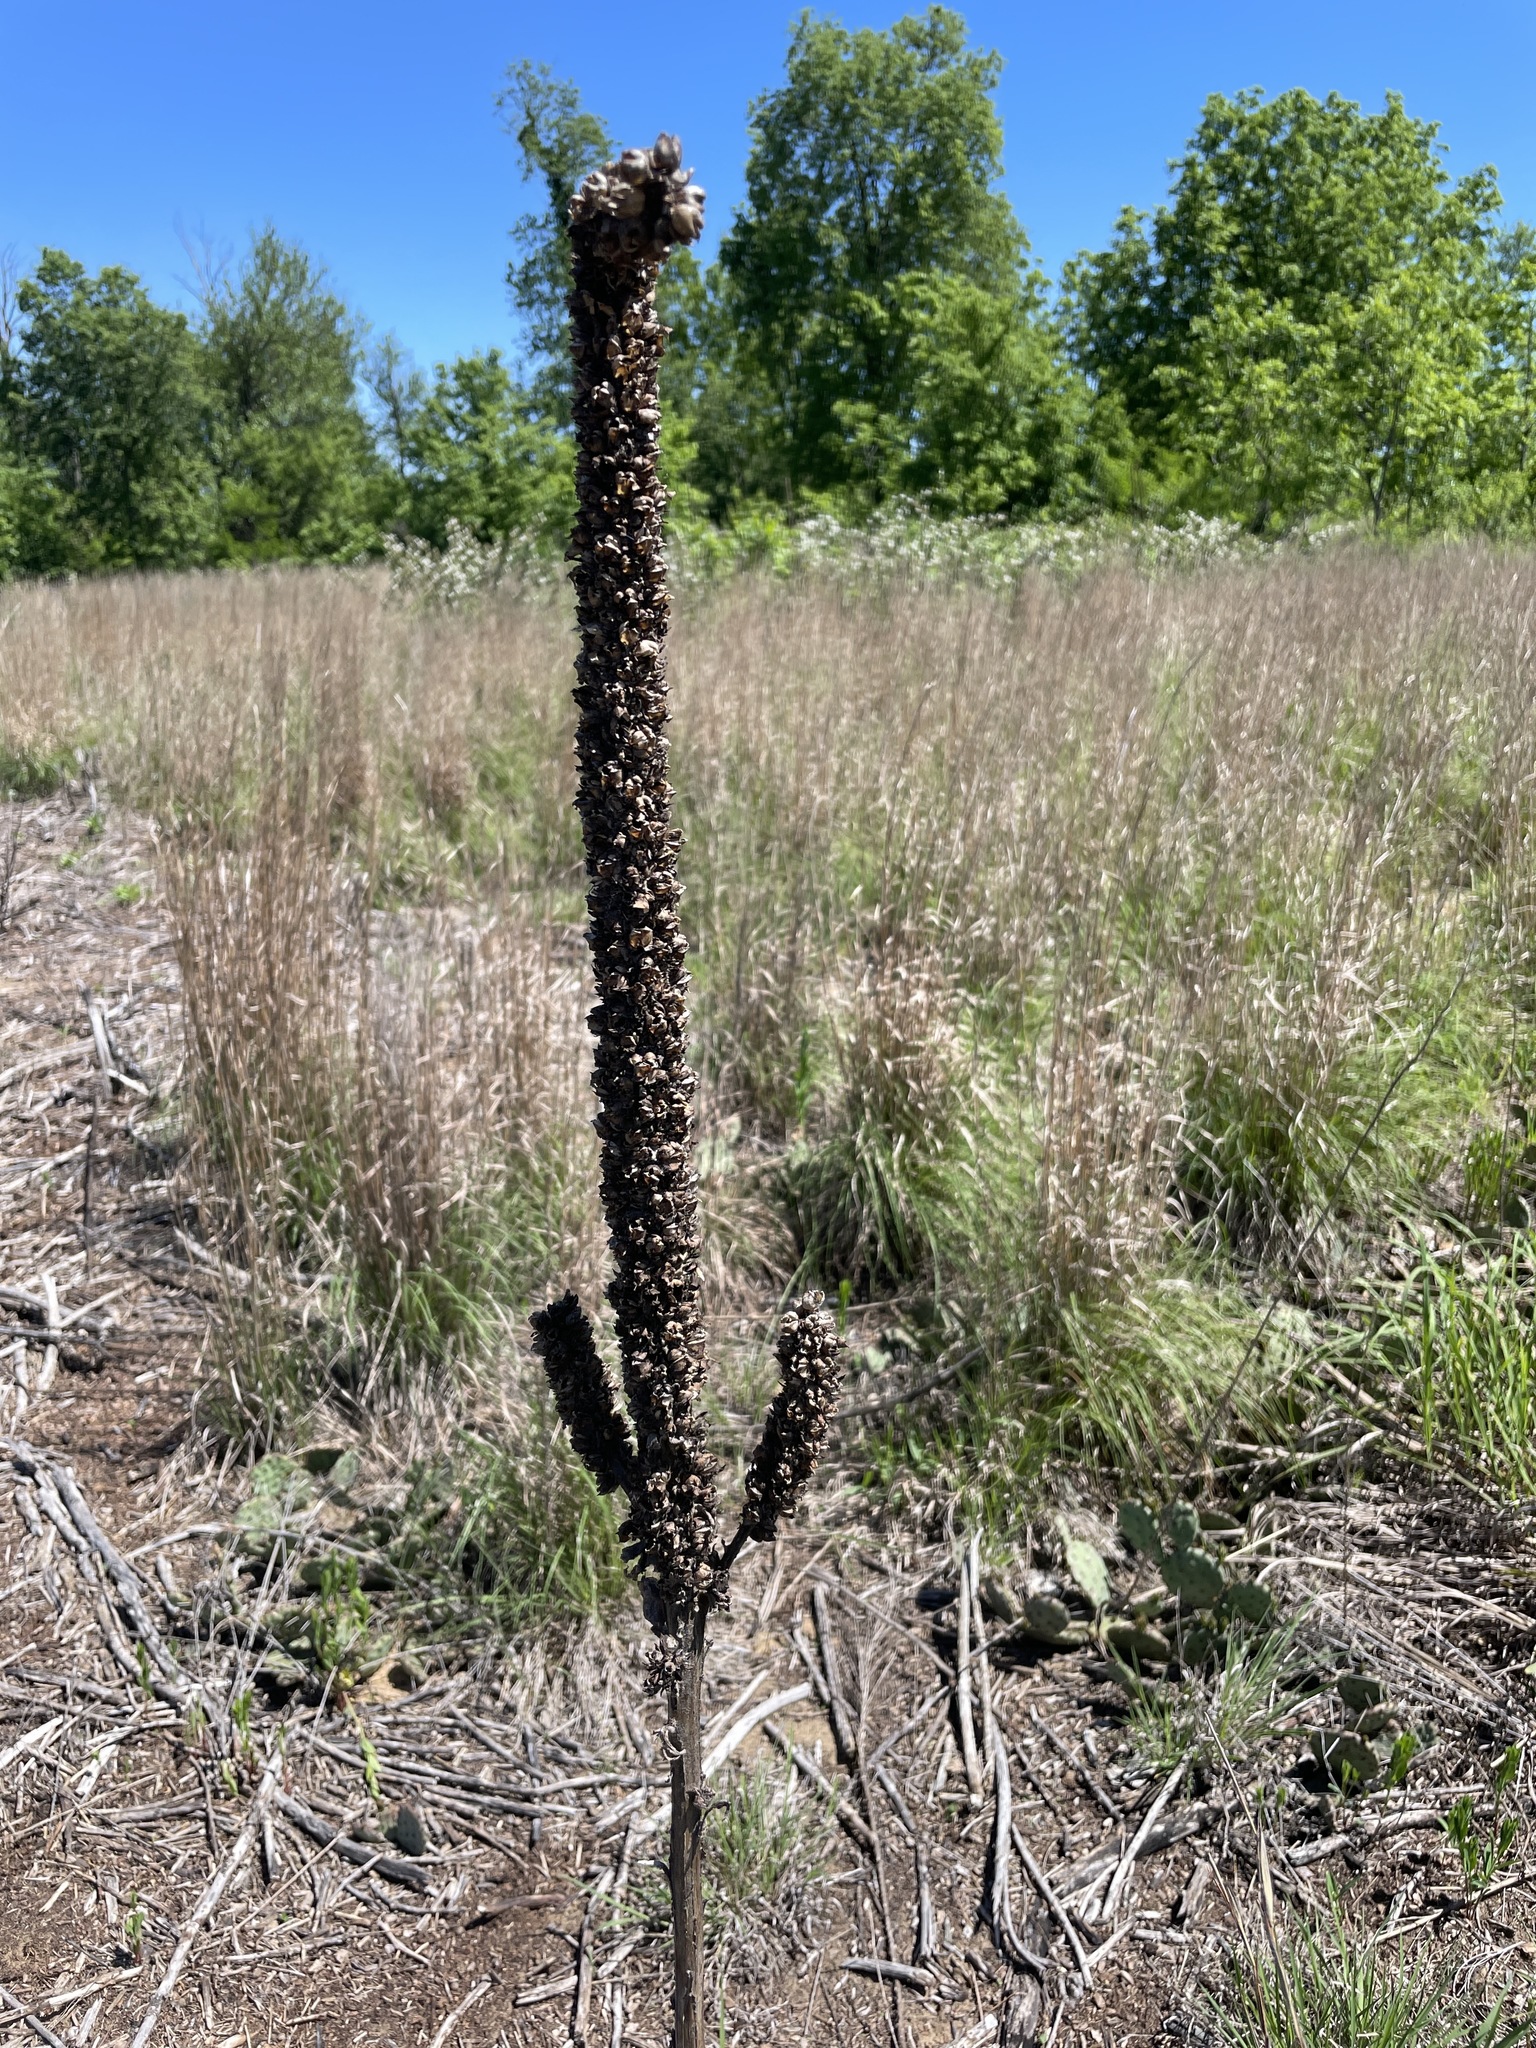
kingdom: Plantae
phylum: Tracheophyta
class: Magnoliopsida
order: Lamiales
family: Scrophulariaceae
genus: Verbascum
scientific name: Verbascum thapsus
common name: Common mullein
